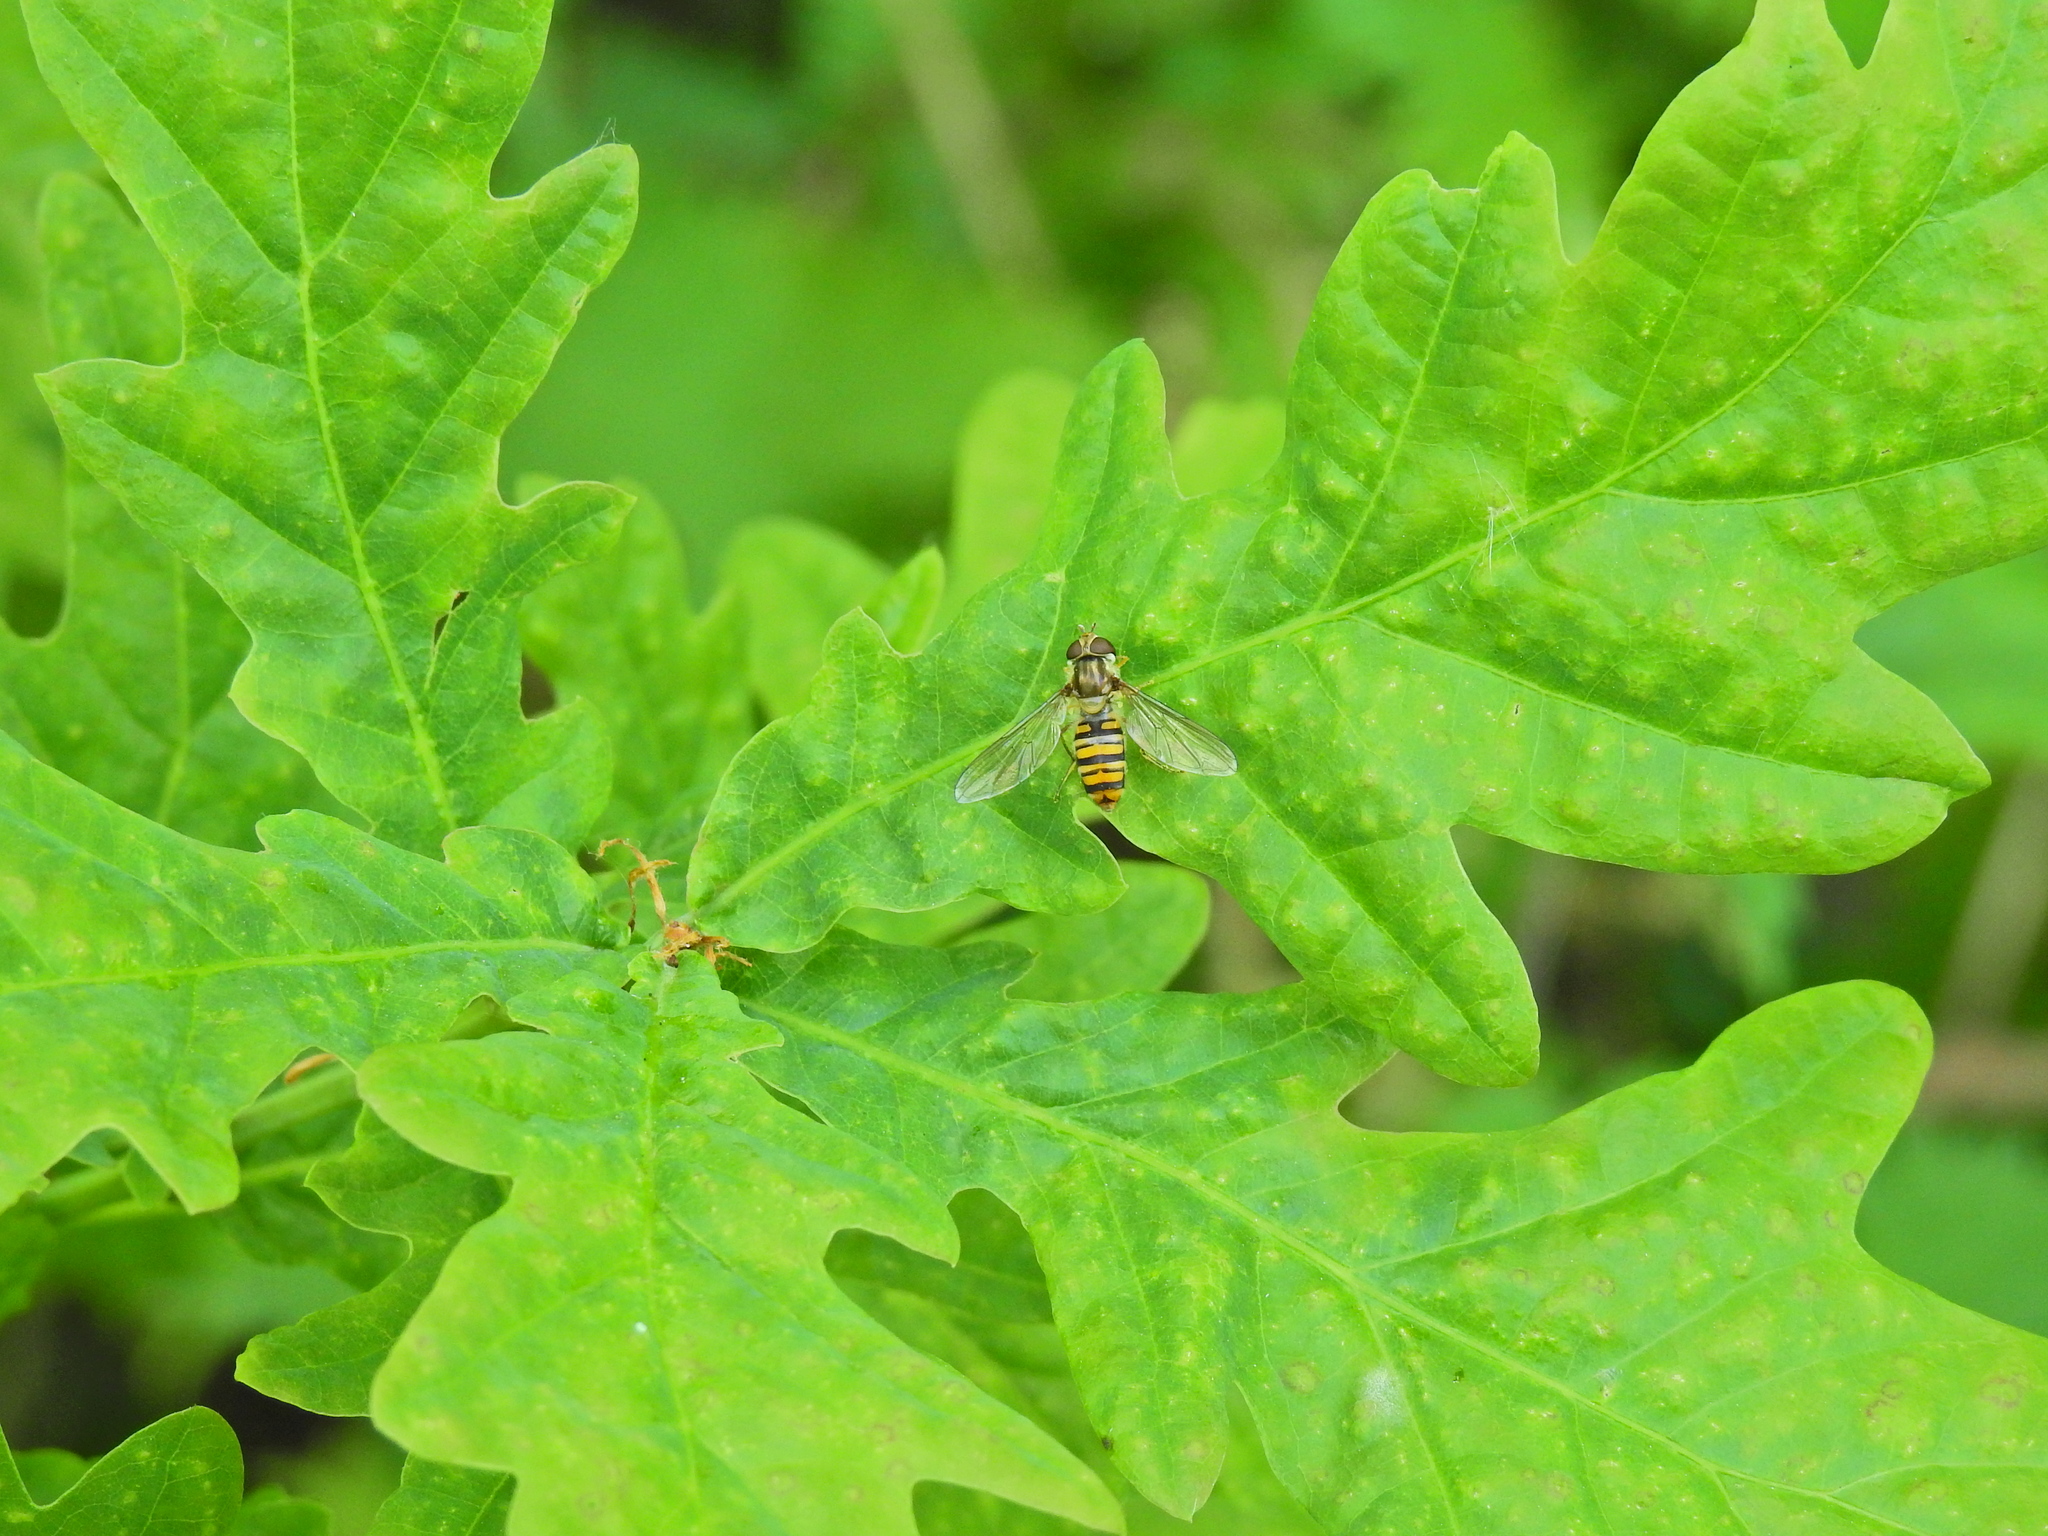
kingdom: Animalia
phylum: Arthropoda
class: Insecta
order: Diptera
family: Syrphidae
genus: Episyrphus
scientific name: Episyrphus balteatus
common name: Marmalade hoverfly
